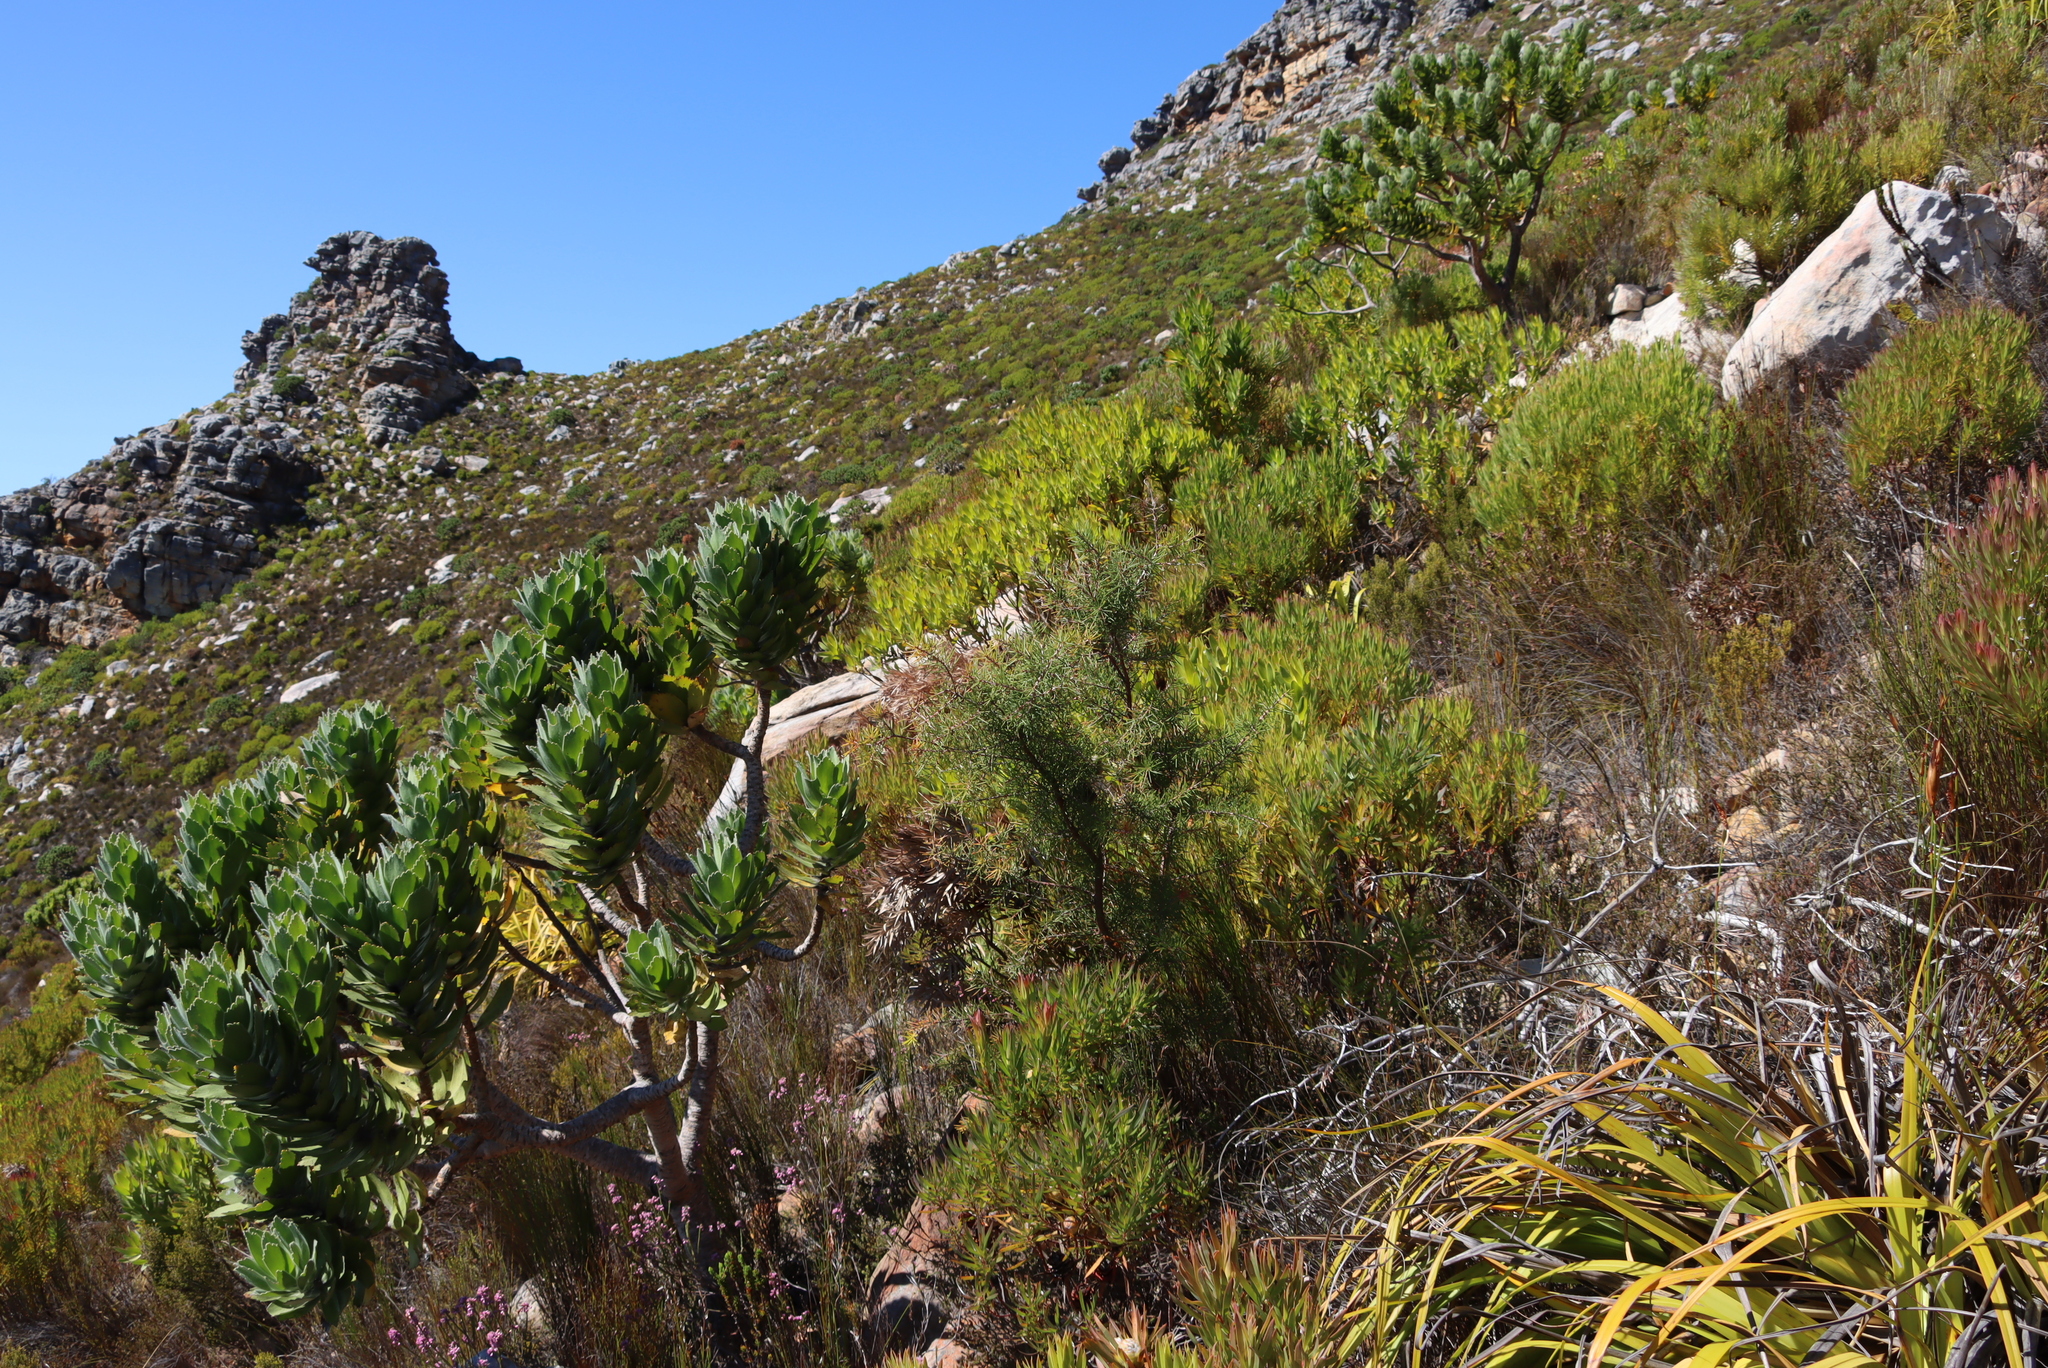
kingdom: Plantae
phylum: Tracheophyta
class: Magnoliopsida
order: Proteales
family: Proteaceae
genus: Leucospermum
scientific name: Leucospermum conocarpodendron
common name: Tree pincushion
